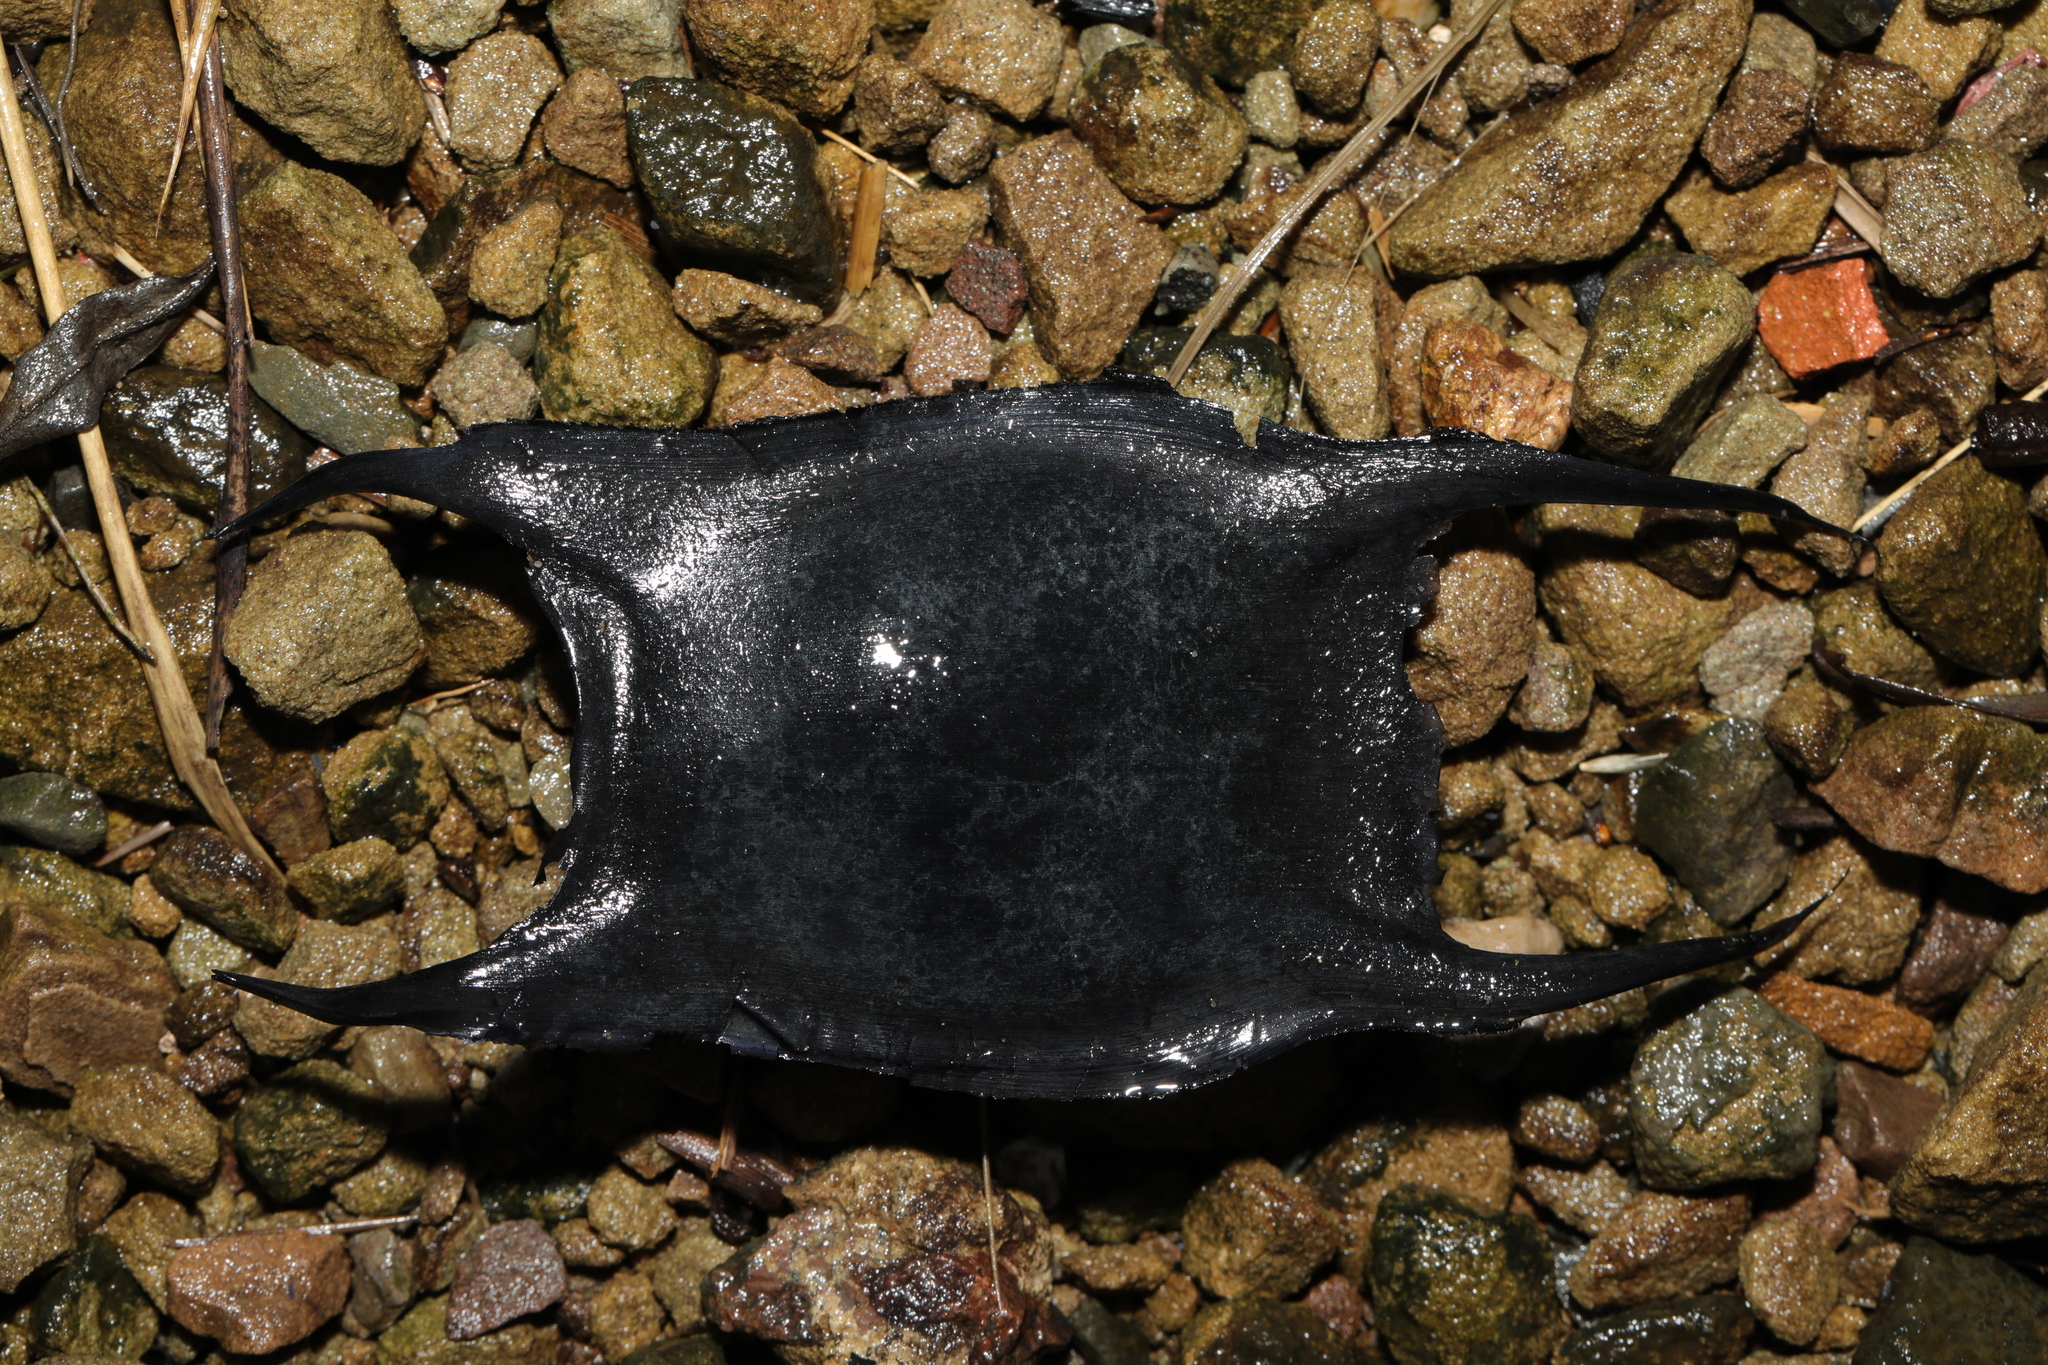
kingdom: Animalia
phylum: Chordata
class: Elasmobranchii
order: Rajiformes
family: Rajidae
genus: Raja
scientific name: Raja clavata
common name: Thornback ray
